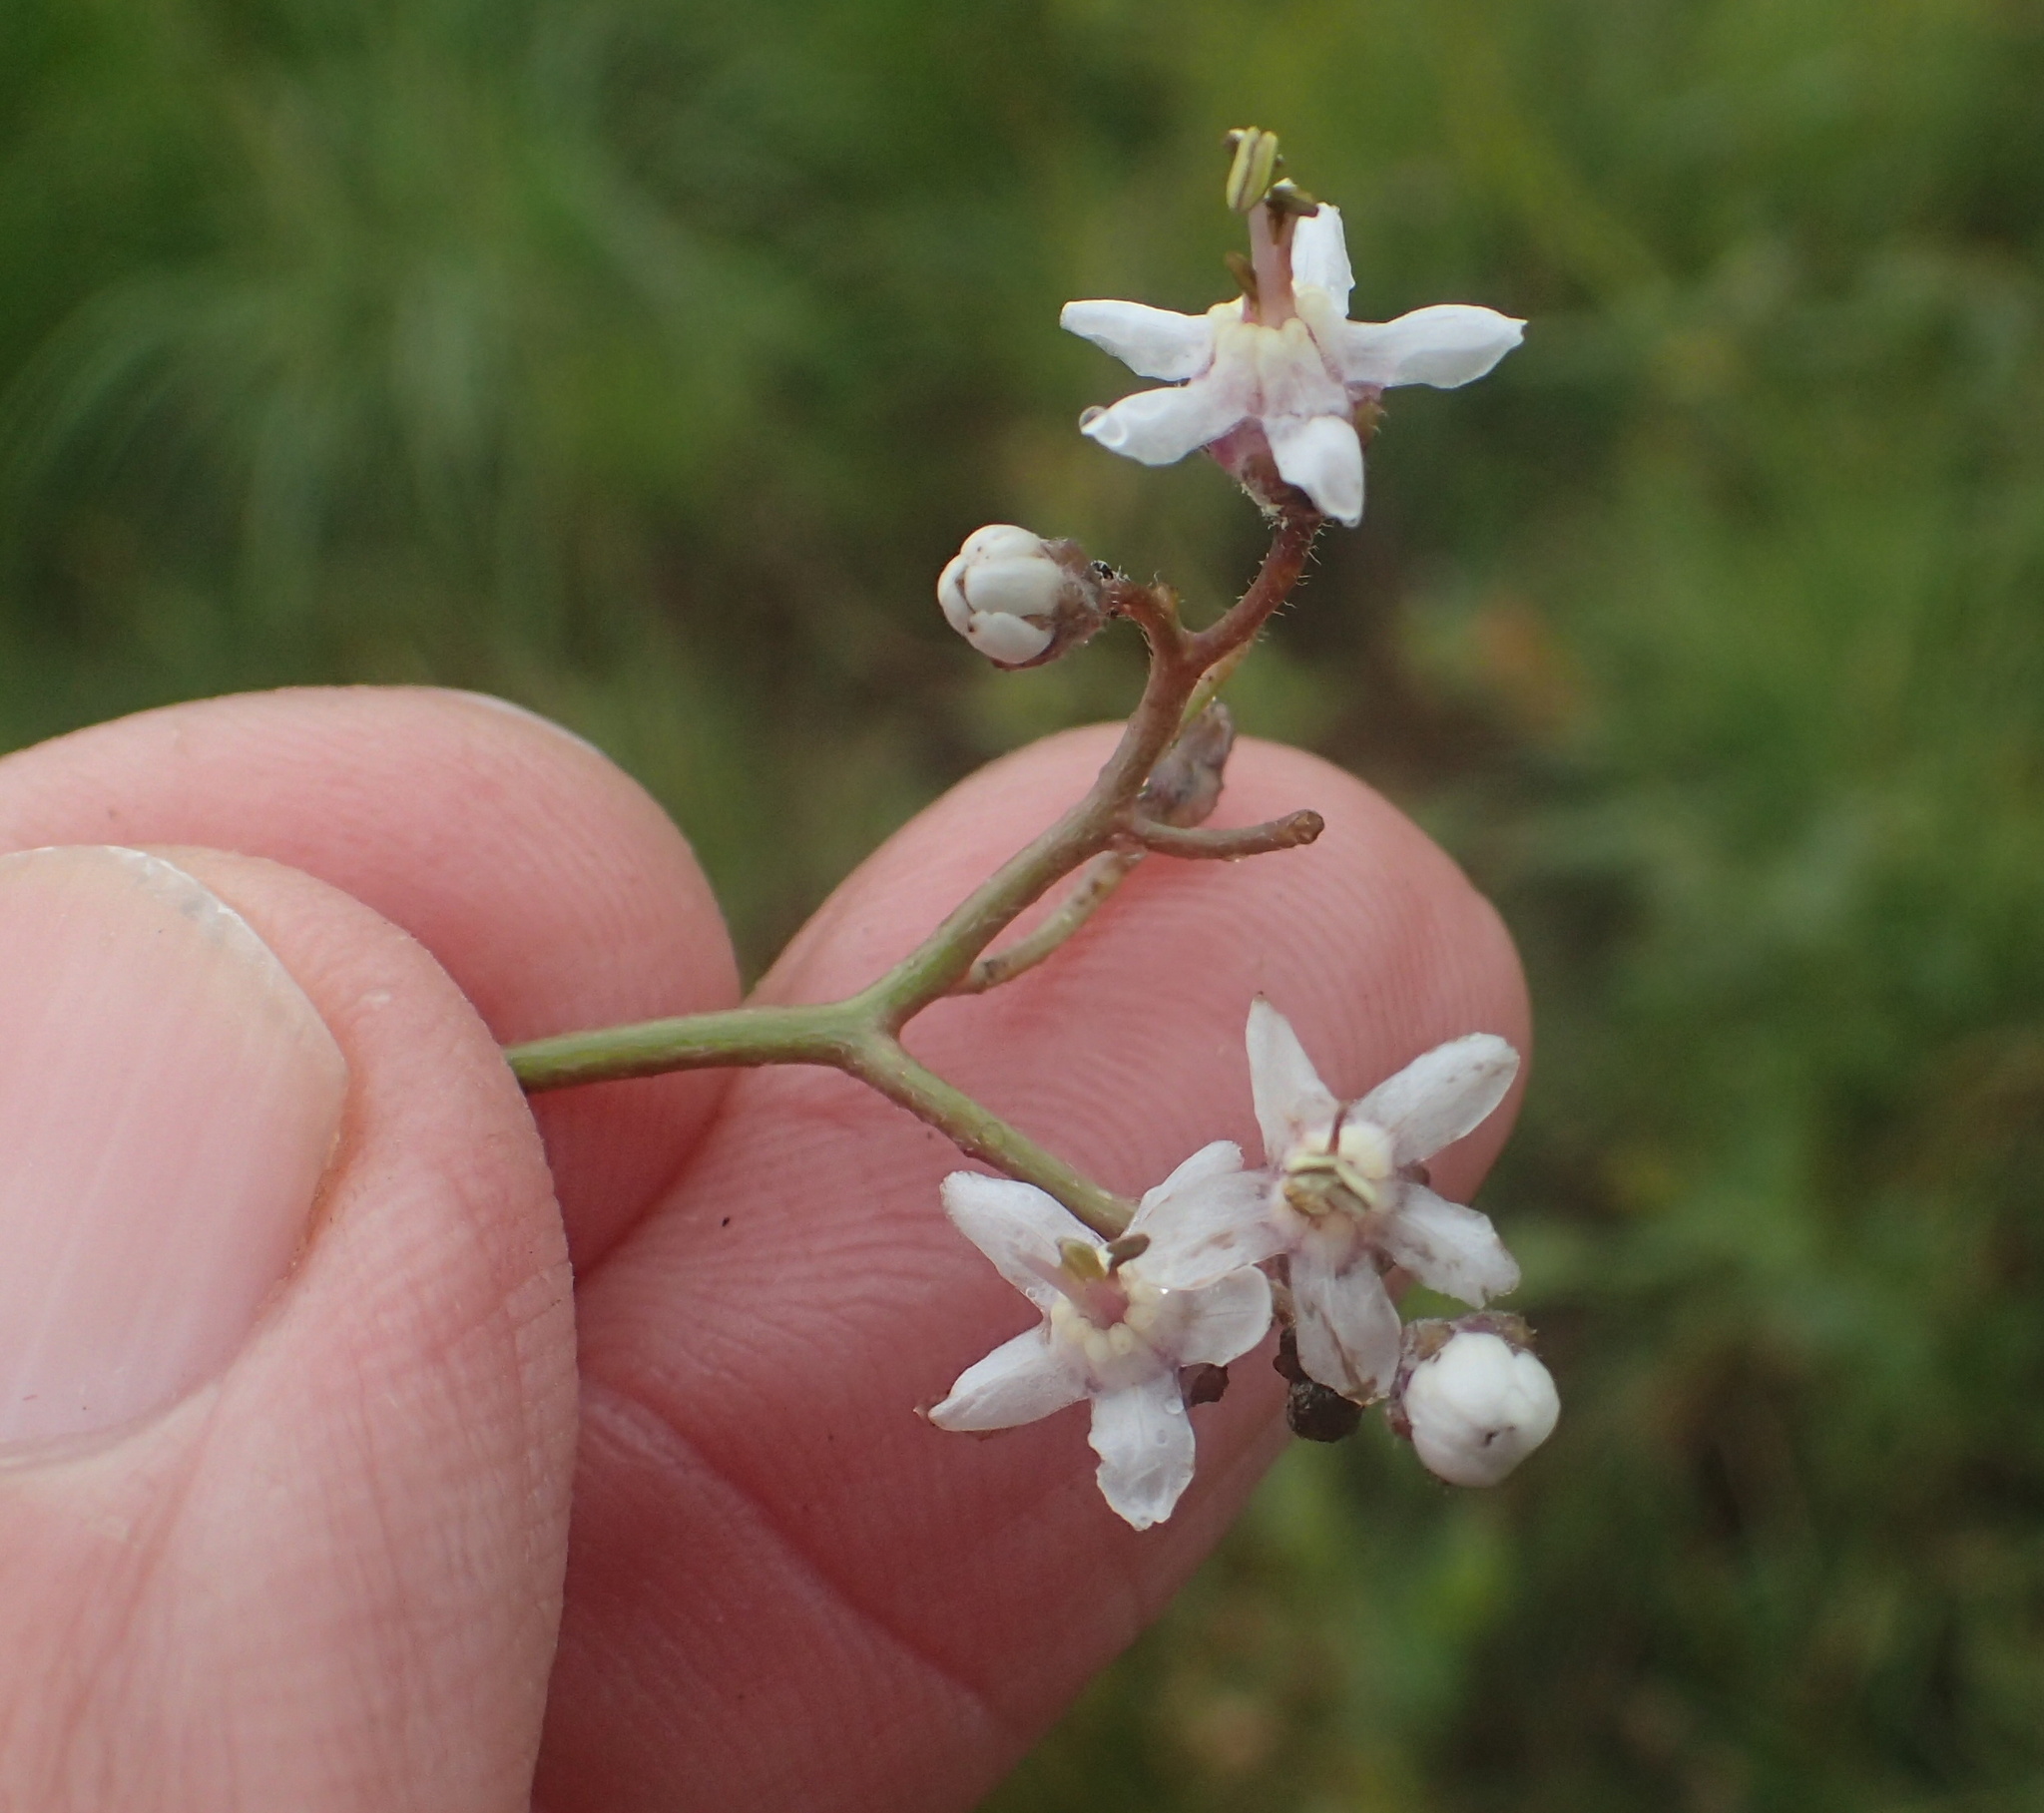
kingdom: Plantae
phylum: Tracheophyta
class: Magnoliopsida
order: Boraginales
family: Boraginaceae
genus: Afrotysonia
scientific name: Afrotysonia glochidiata
